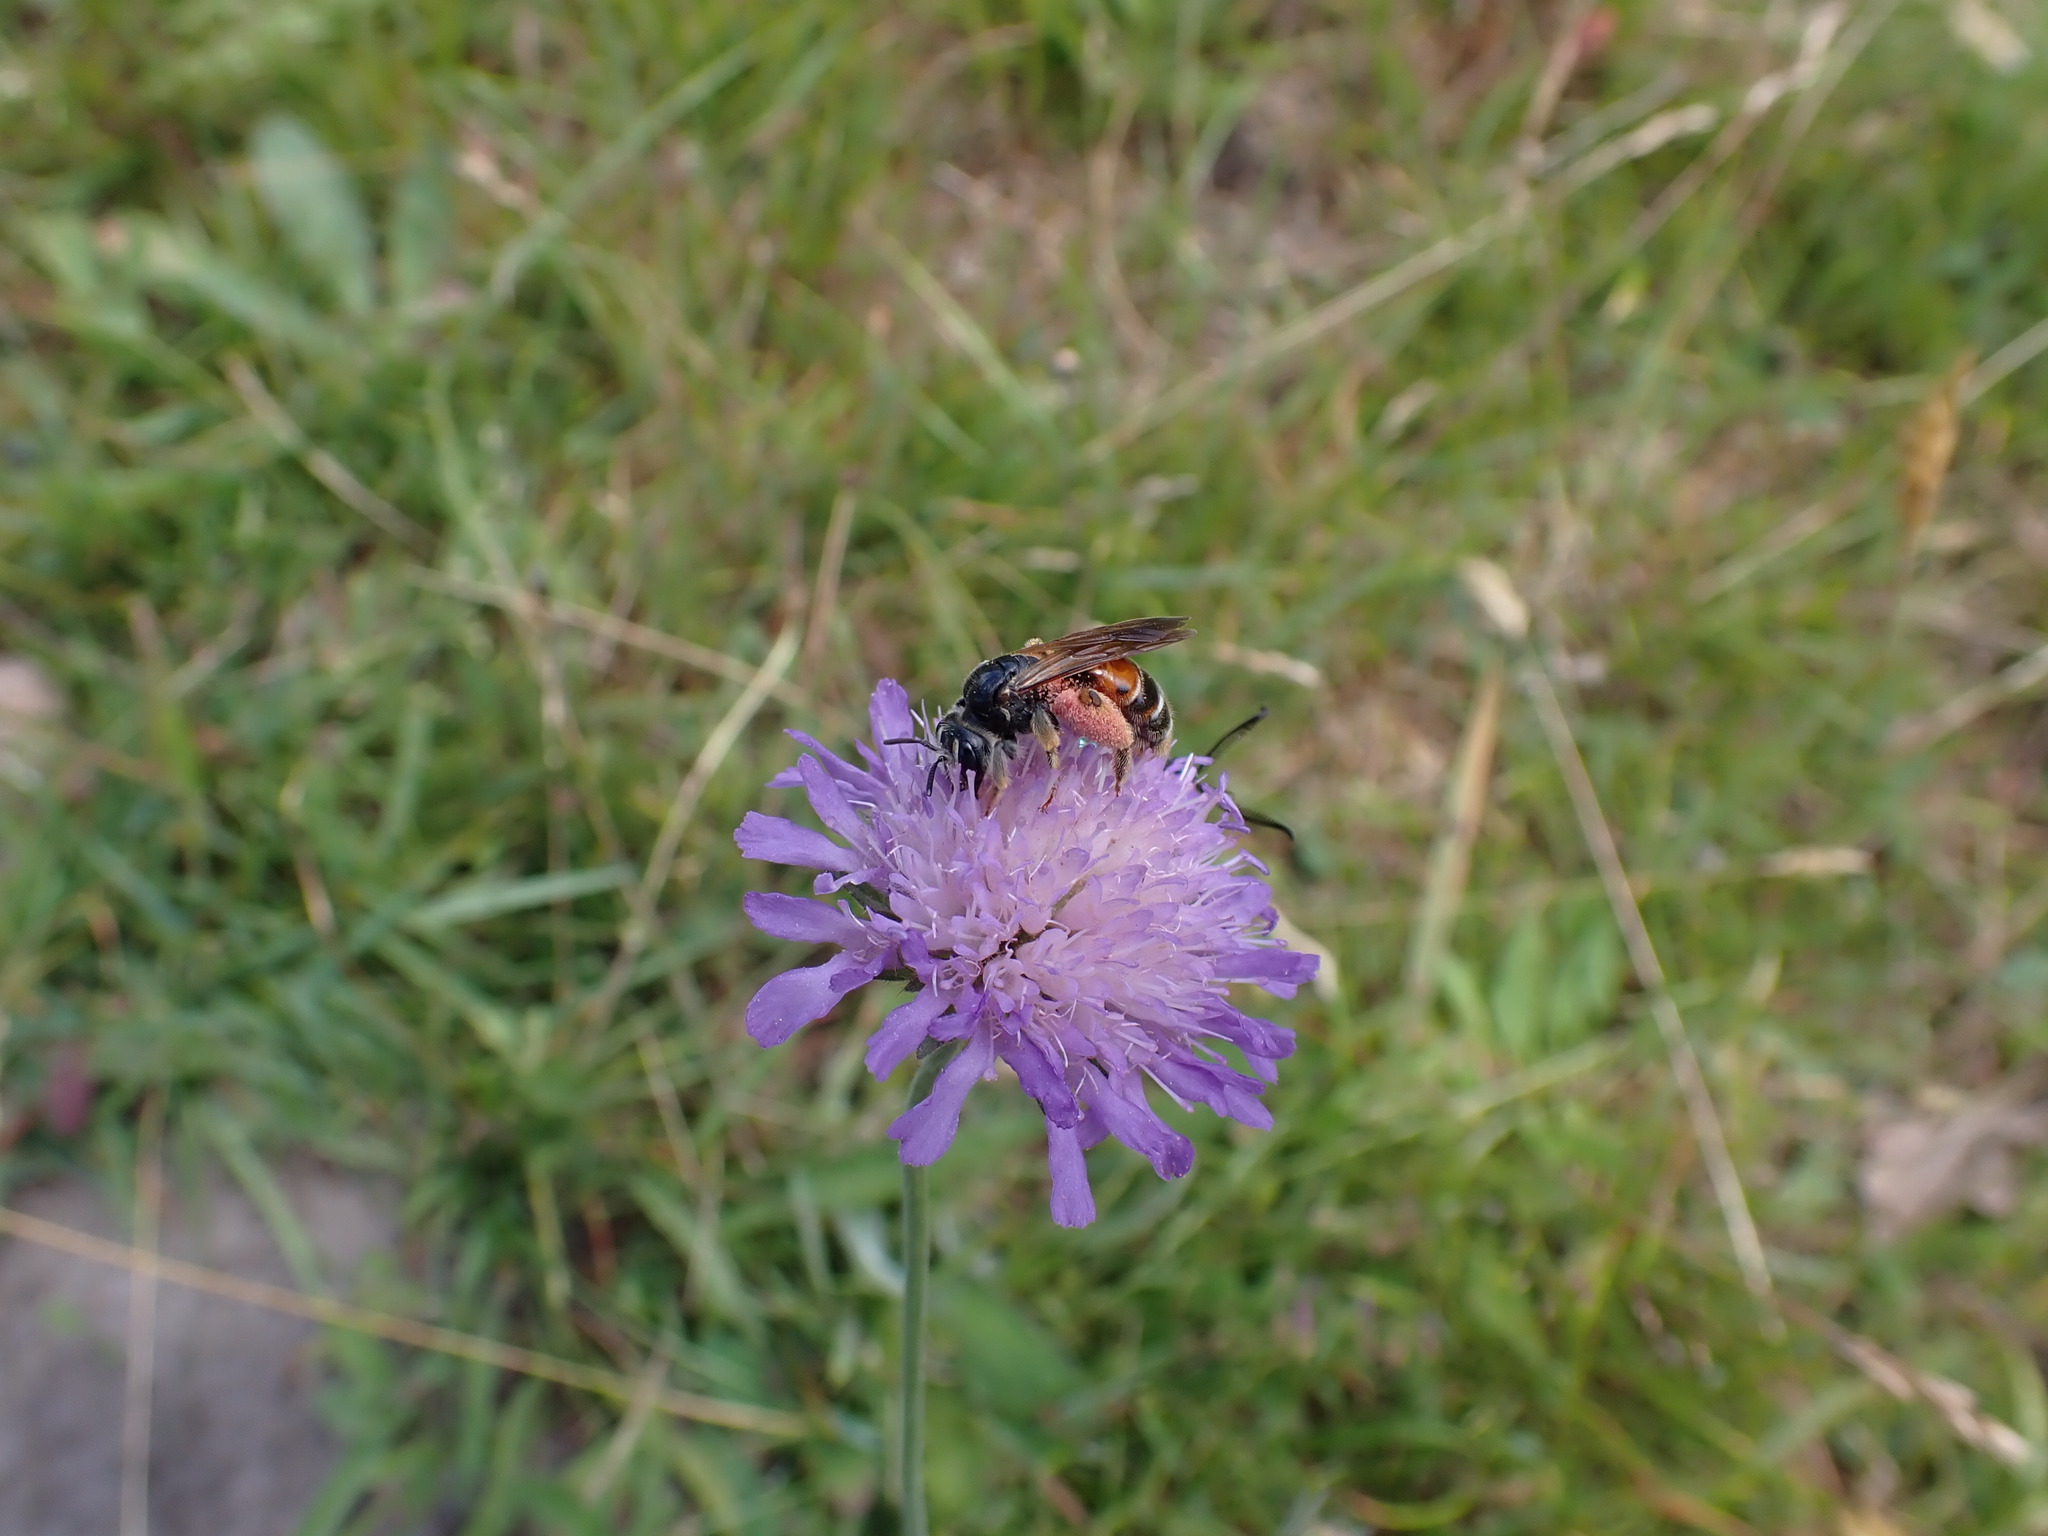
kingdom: Animalia
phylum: Arthropoda
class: Insecta
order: Hymenoptera
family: Andrenidae
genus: Andrena
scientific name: Andrena hattorfiana
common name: Large scabious mining bee
